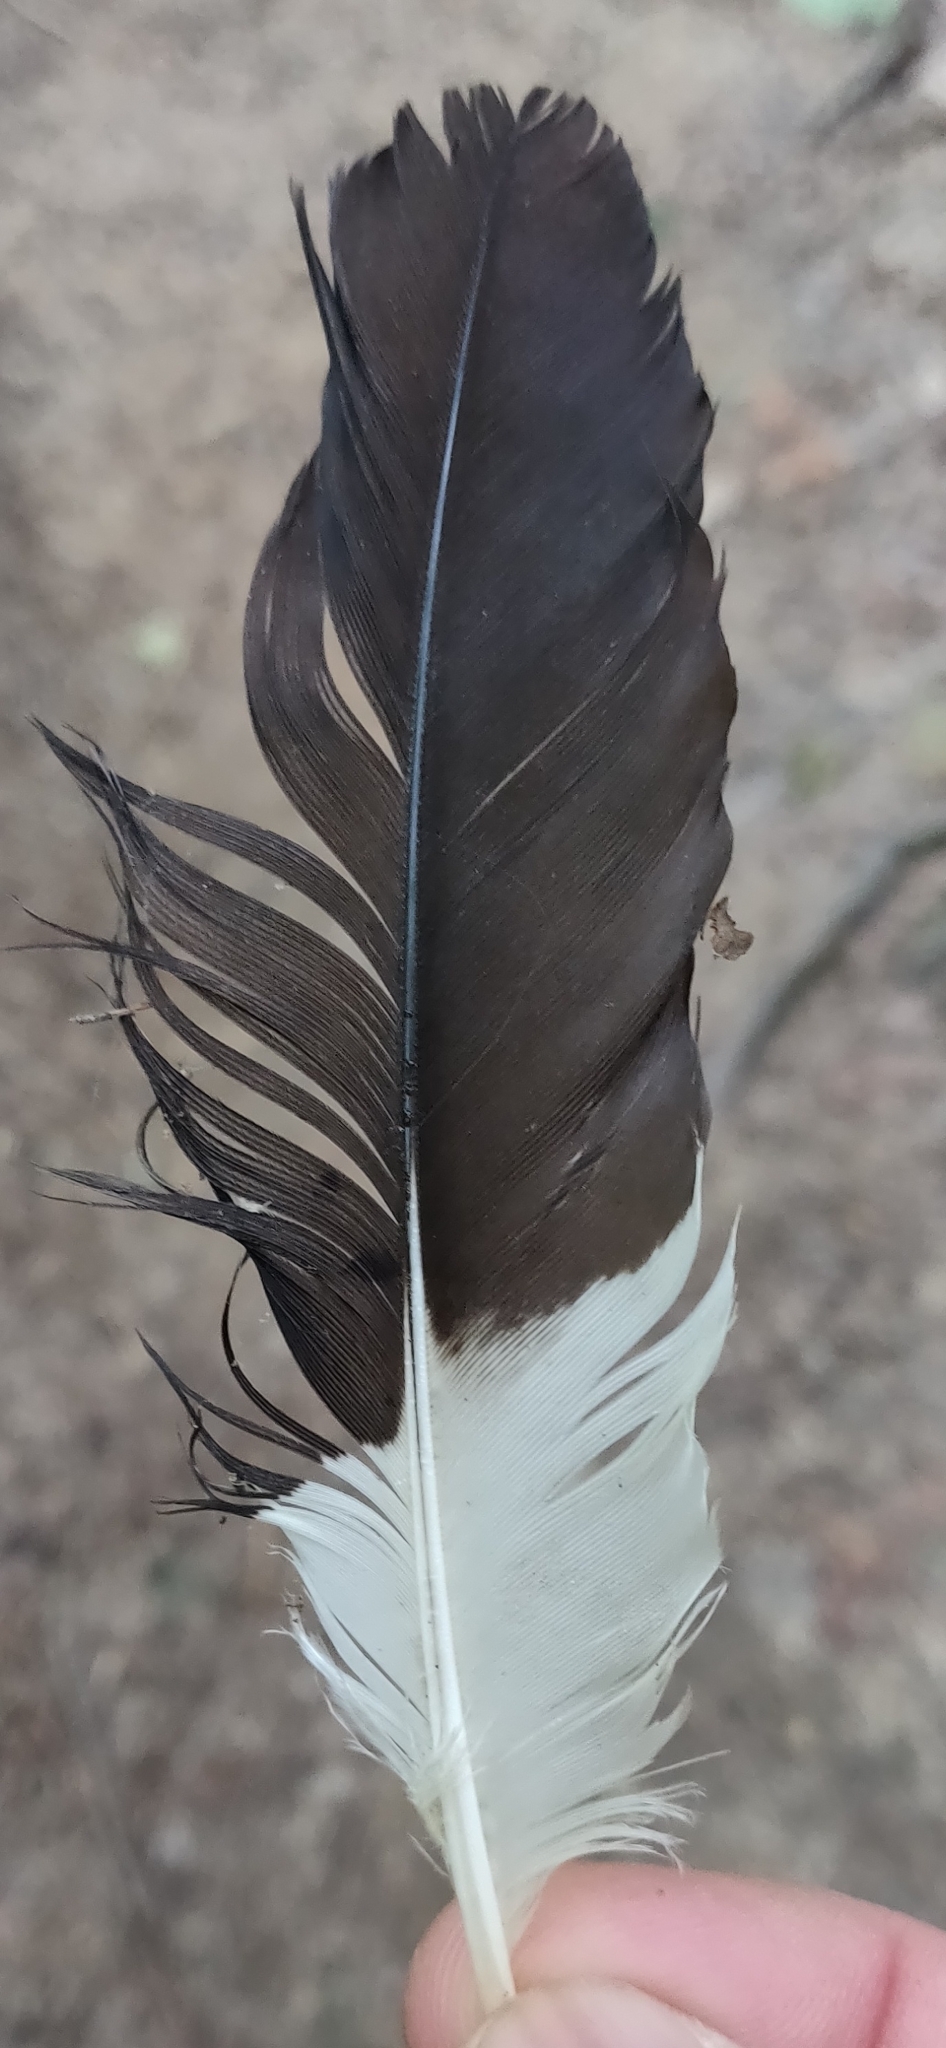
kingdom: Animalia
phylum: Chordata
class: Aves
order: Piciformes
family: Picidae
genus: Dryocopus
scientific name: Dryocopus pileatus
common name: Pileated woodpecker
